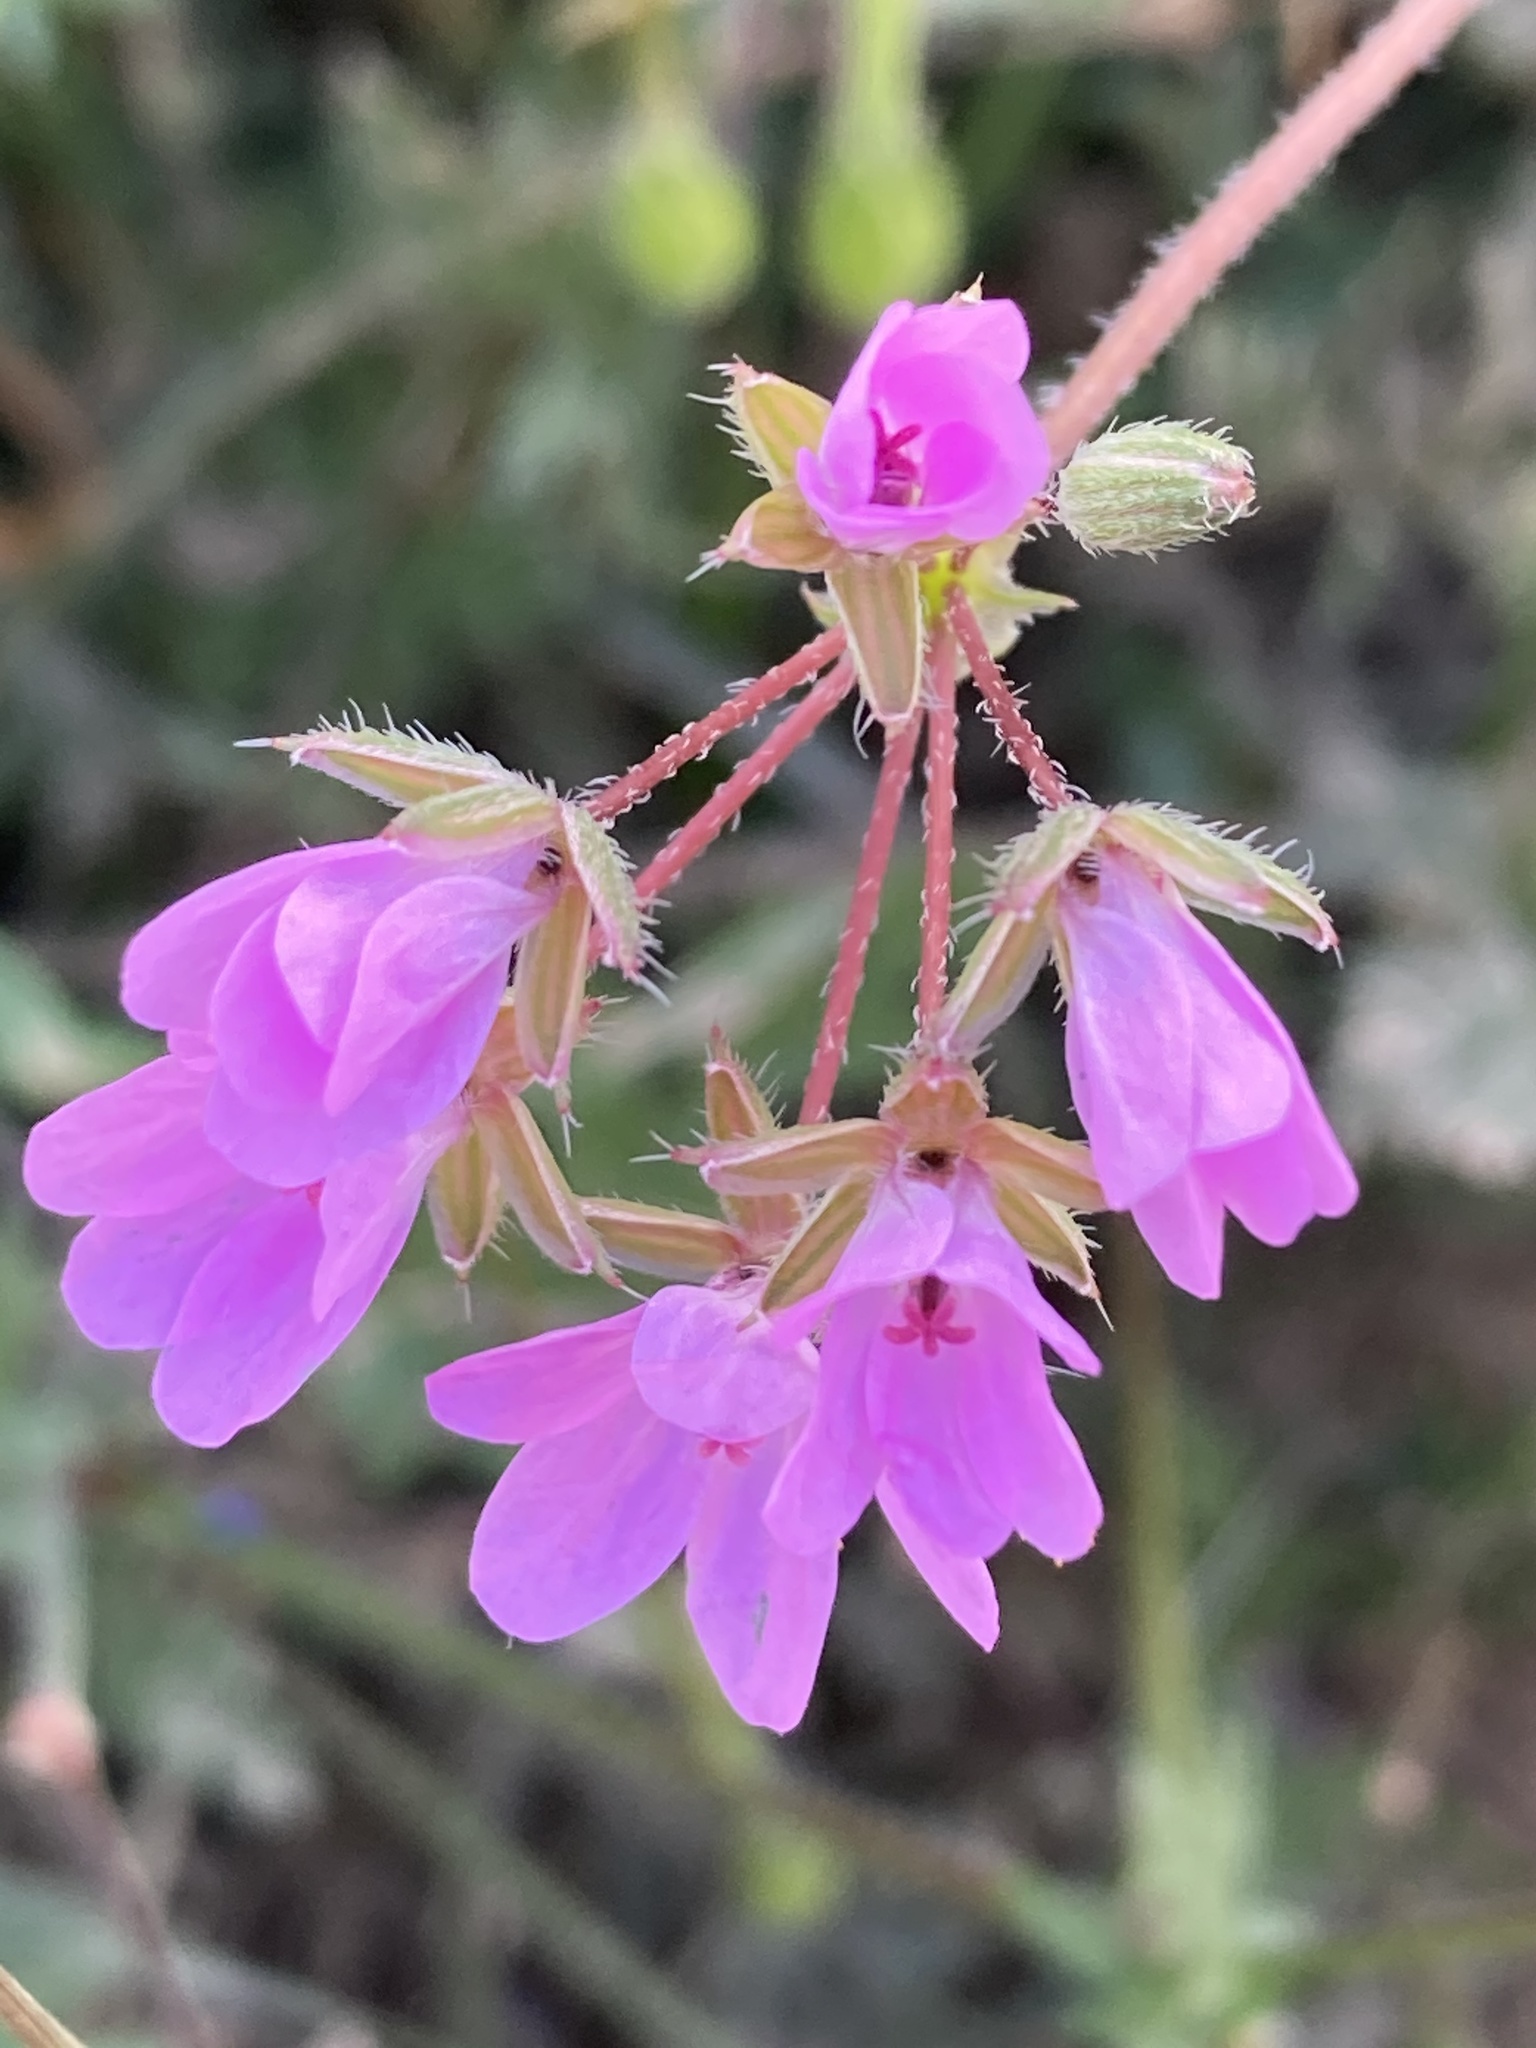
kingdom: Plantae
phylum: Tracheophyta
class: Magnoliopsida
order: Geraniales
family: Geraniaceae
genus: Erodium
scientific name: Erodium cicutarium
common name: Common stork's-bill
